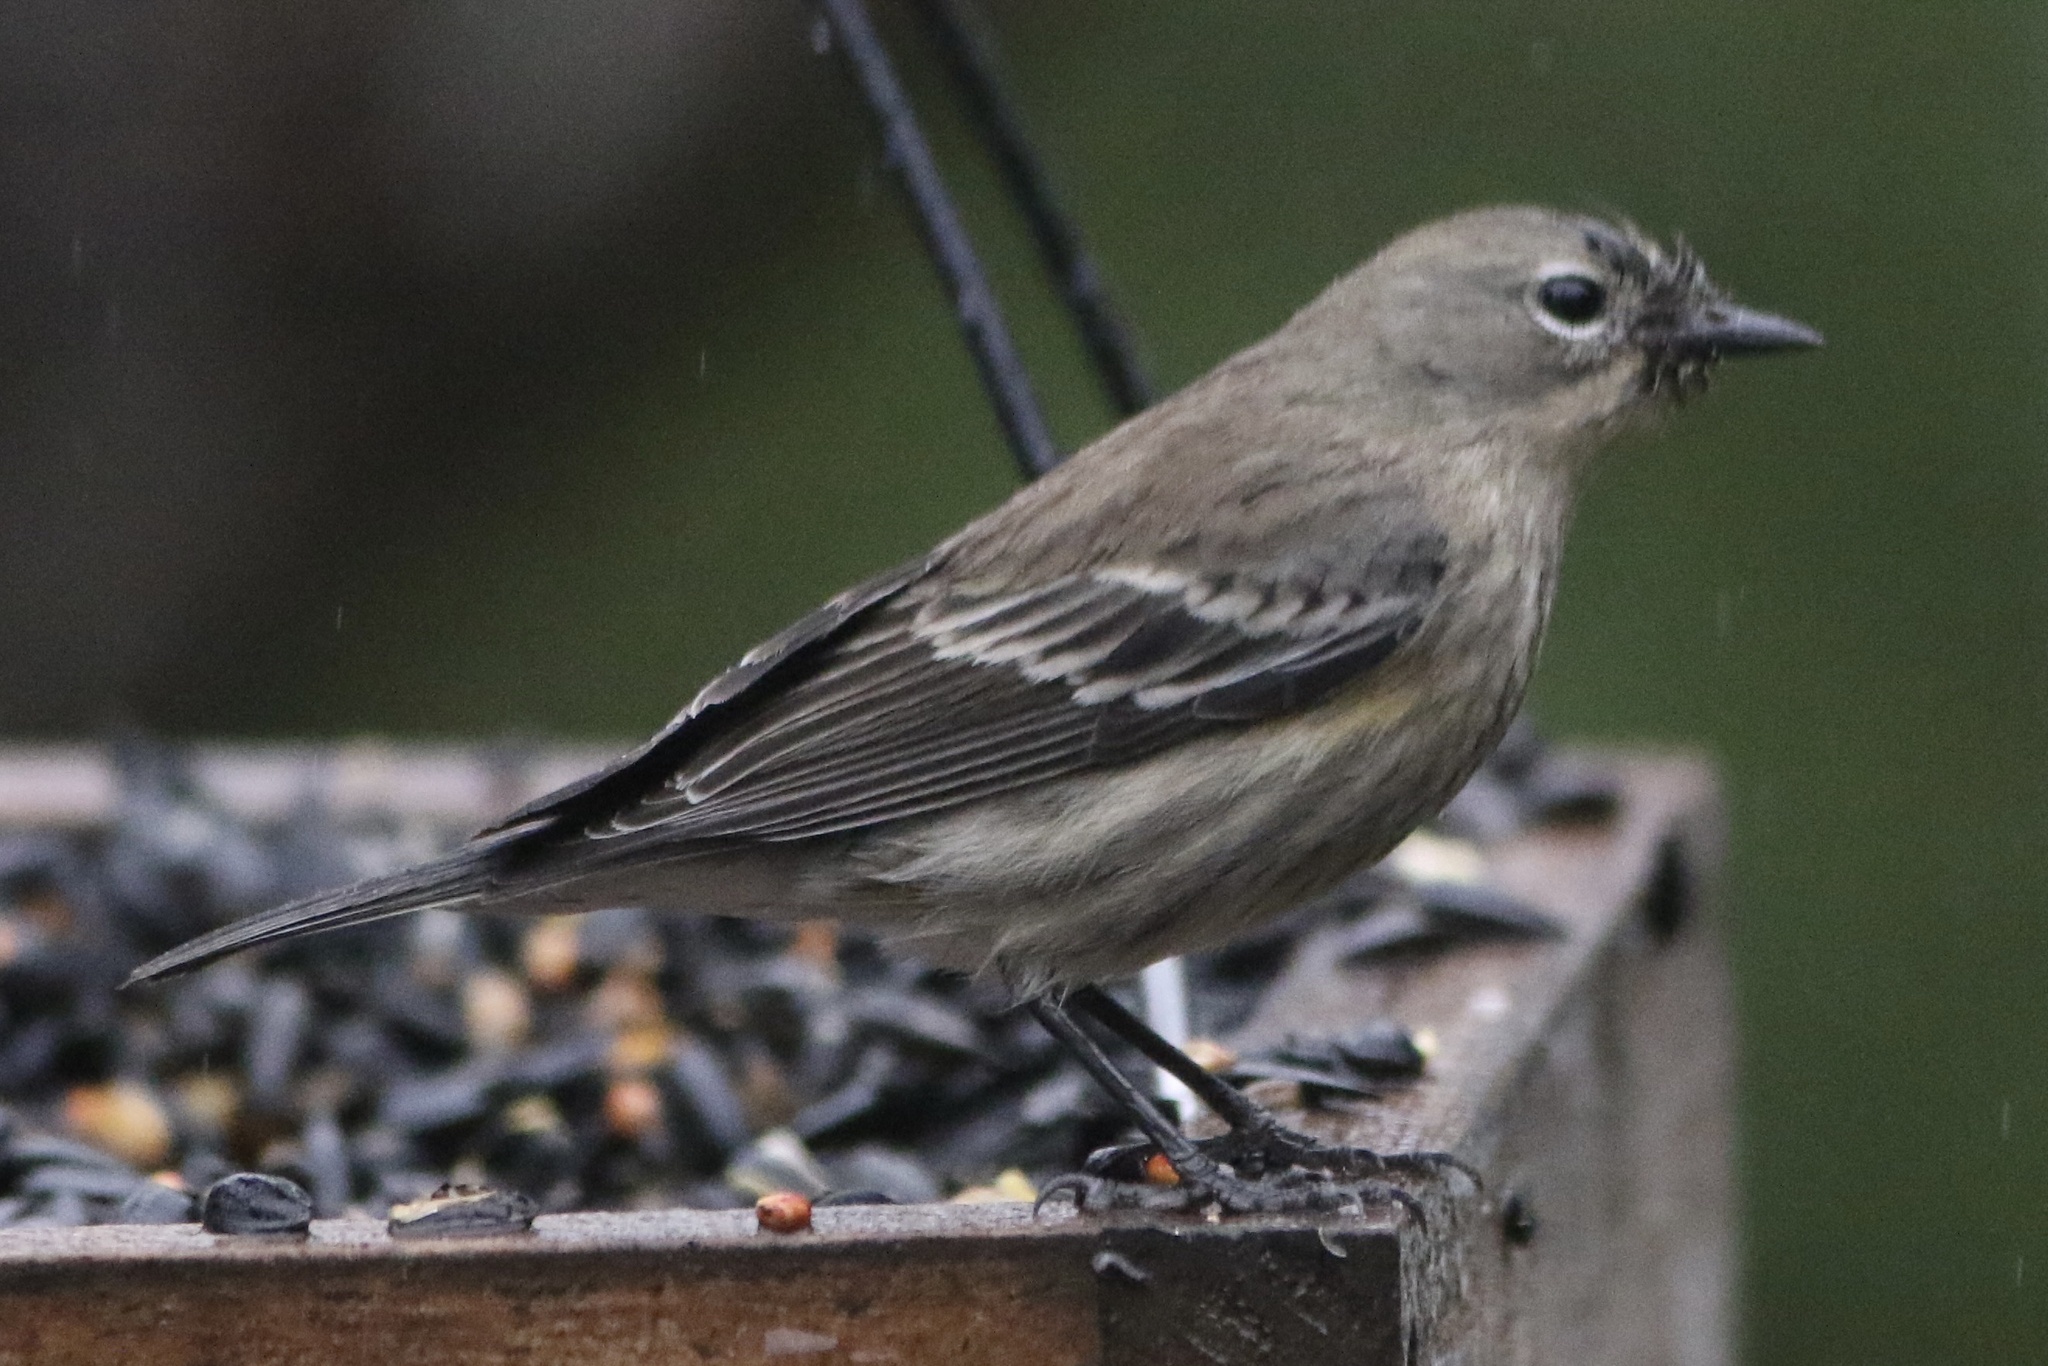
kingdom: Animalia
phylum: Chordata
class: Aves
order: Passeriformes
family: Parulidae
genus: Setophaga
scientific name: Setophaga coronata
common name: Myrtle warbler
